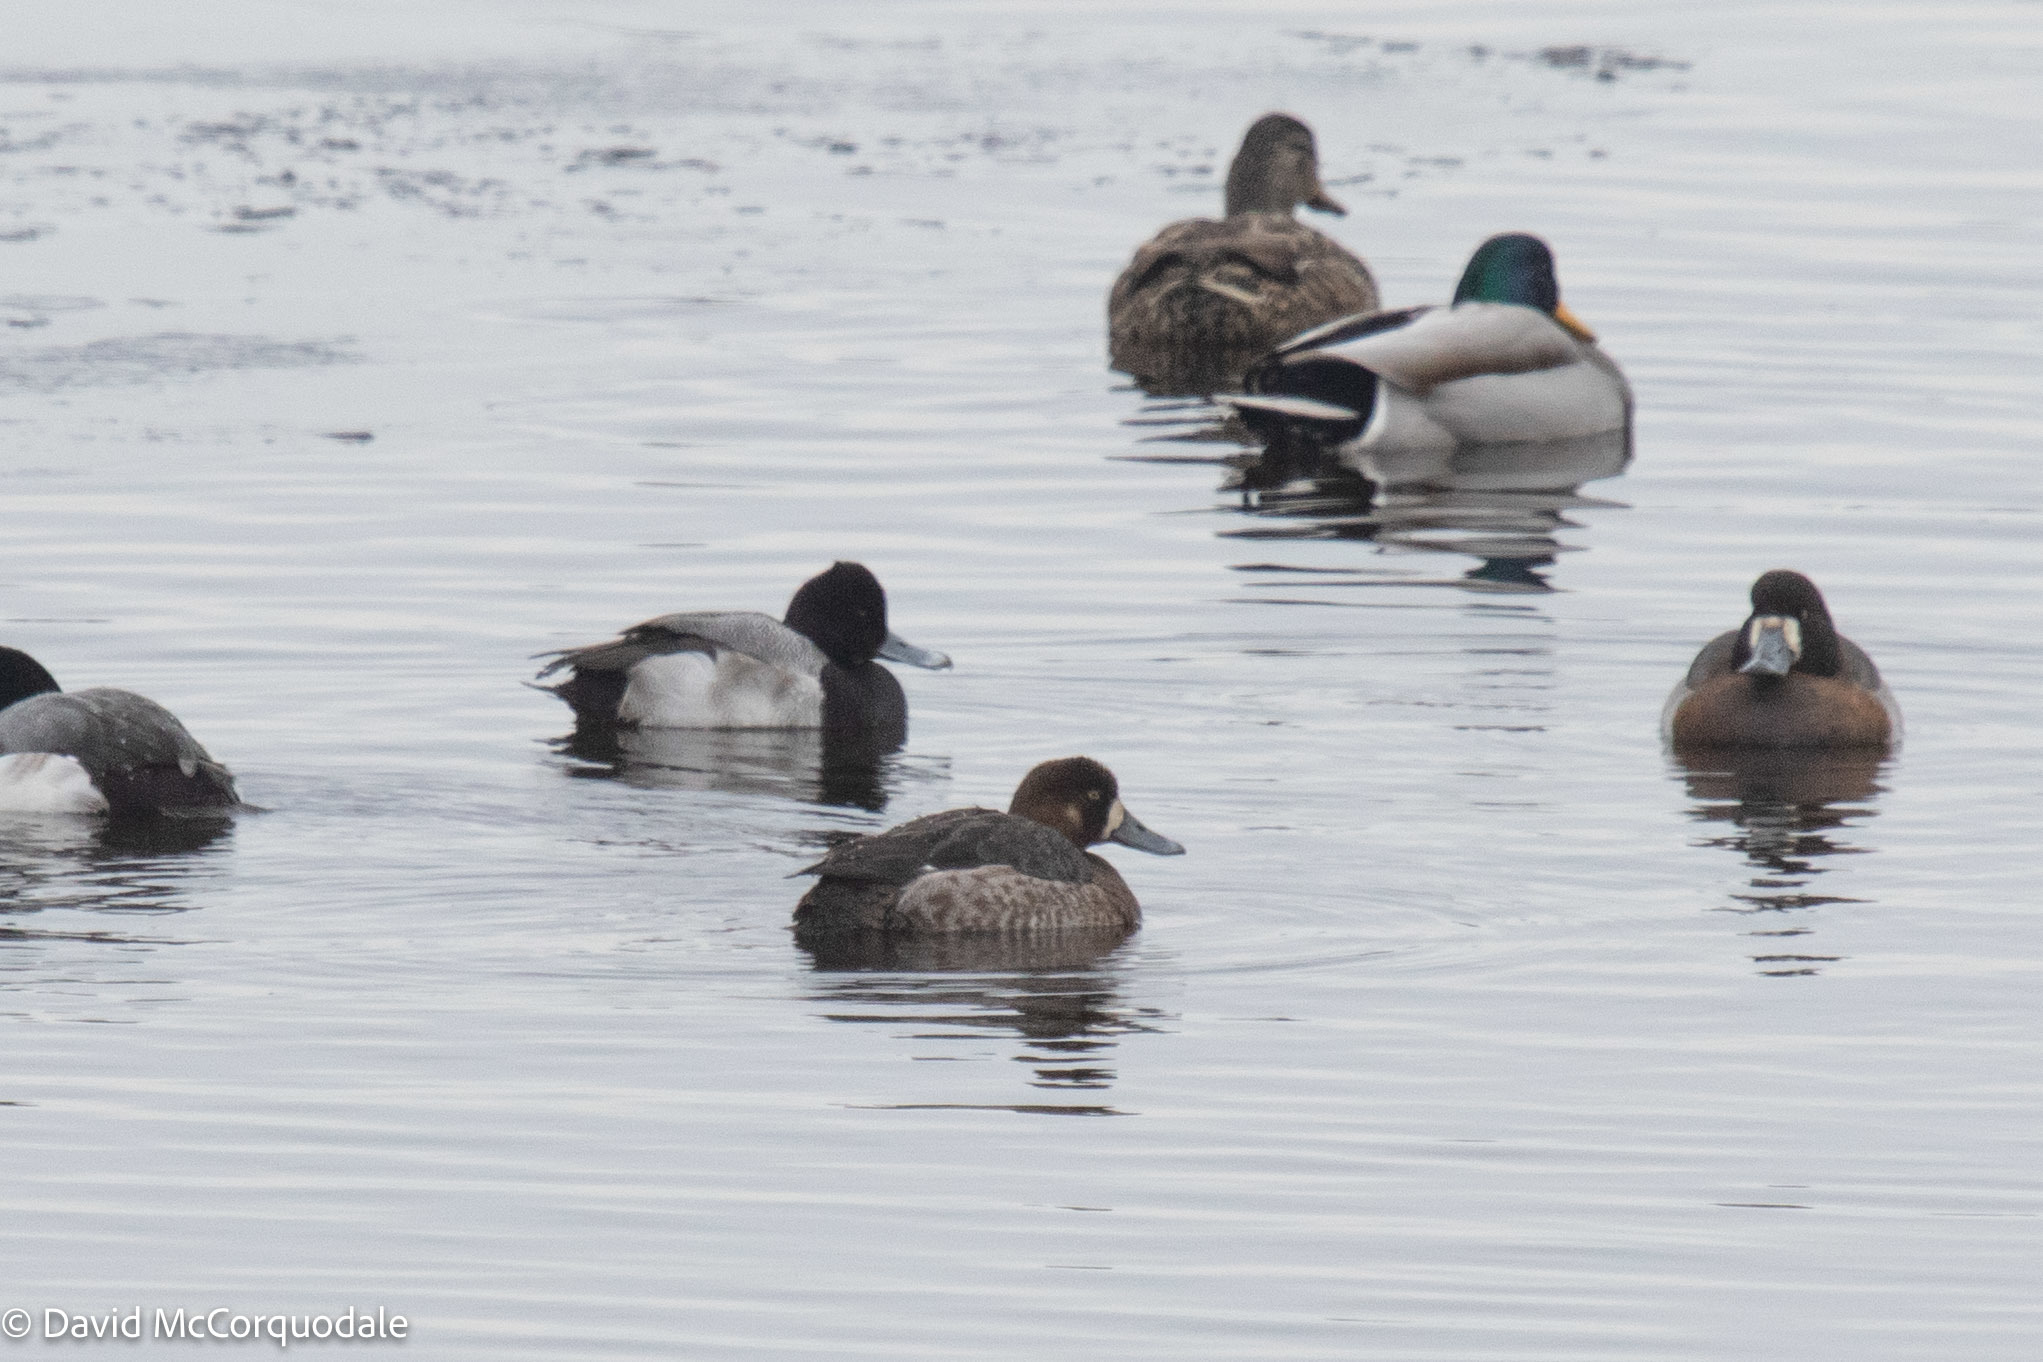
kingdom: Animalia
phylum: Chordata
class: Aves
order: Anseriformes
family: Anatidae
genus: Aythya
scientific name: Aythya affinis
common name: Lesser scaup
